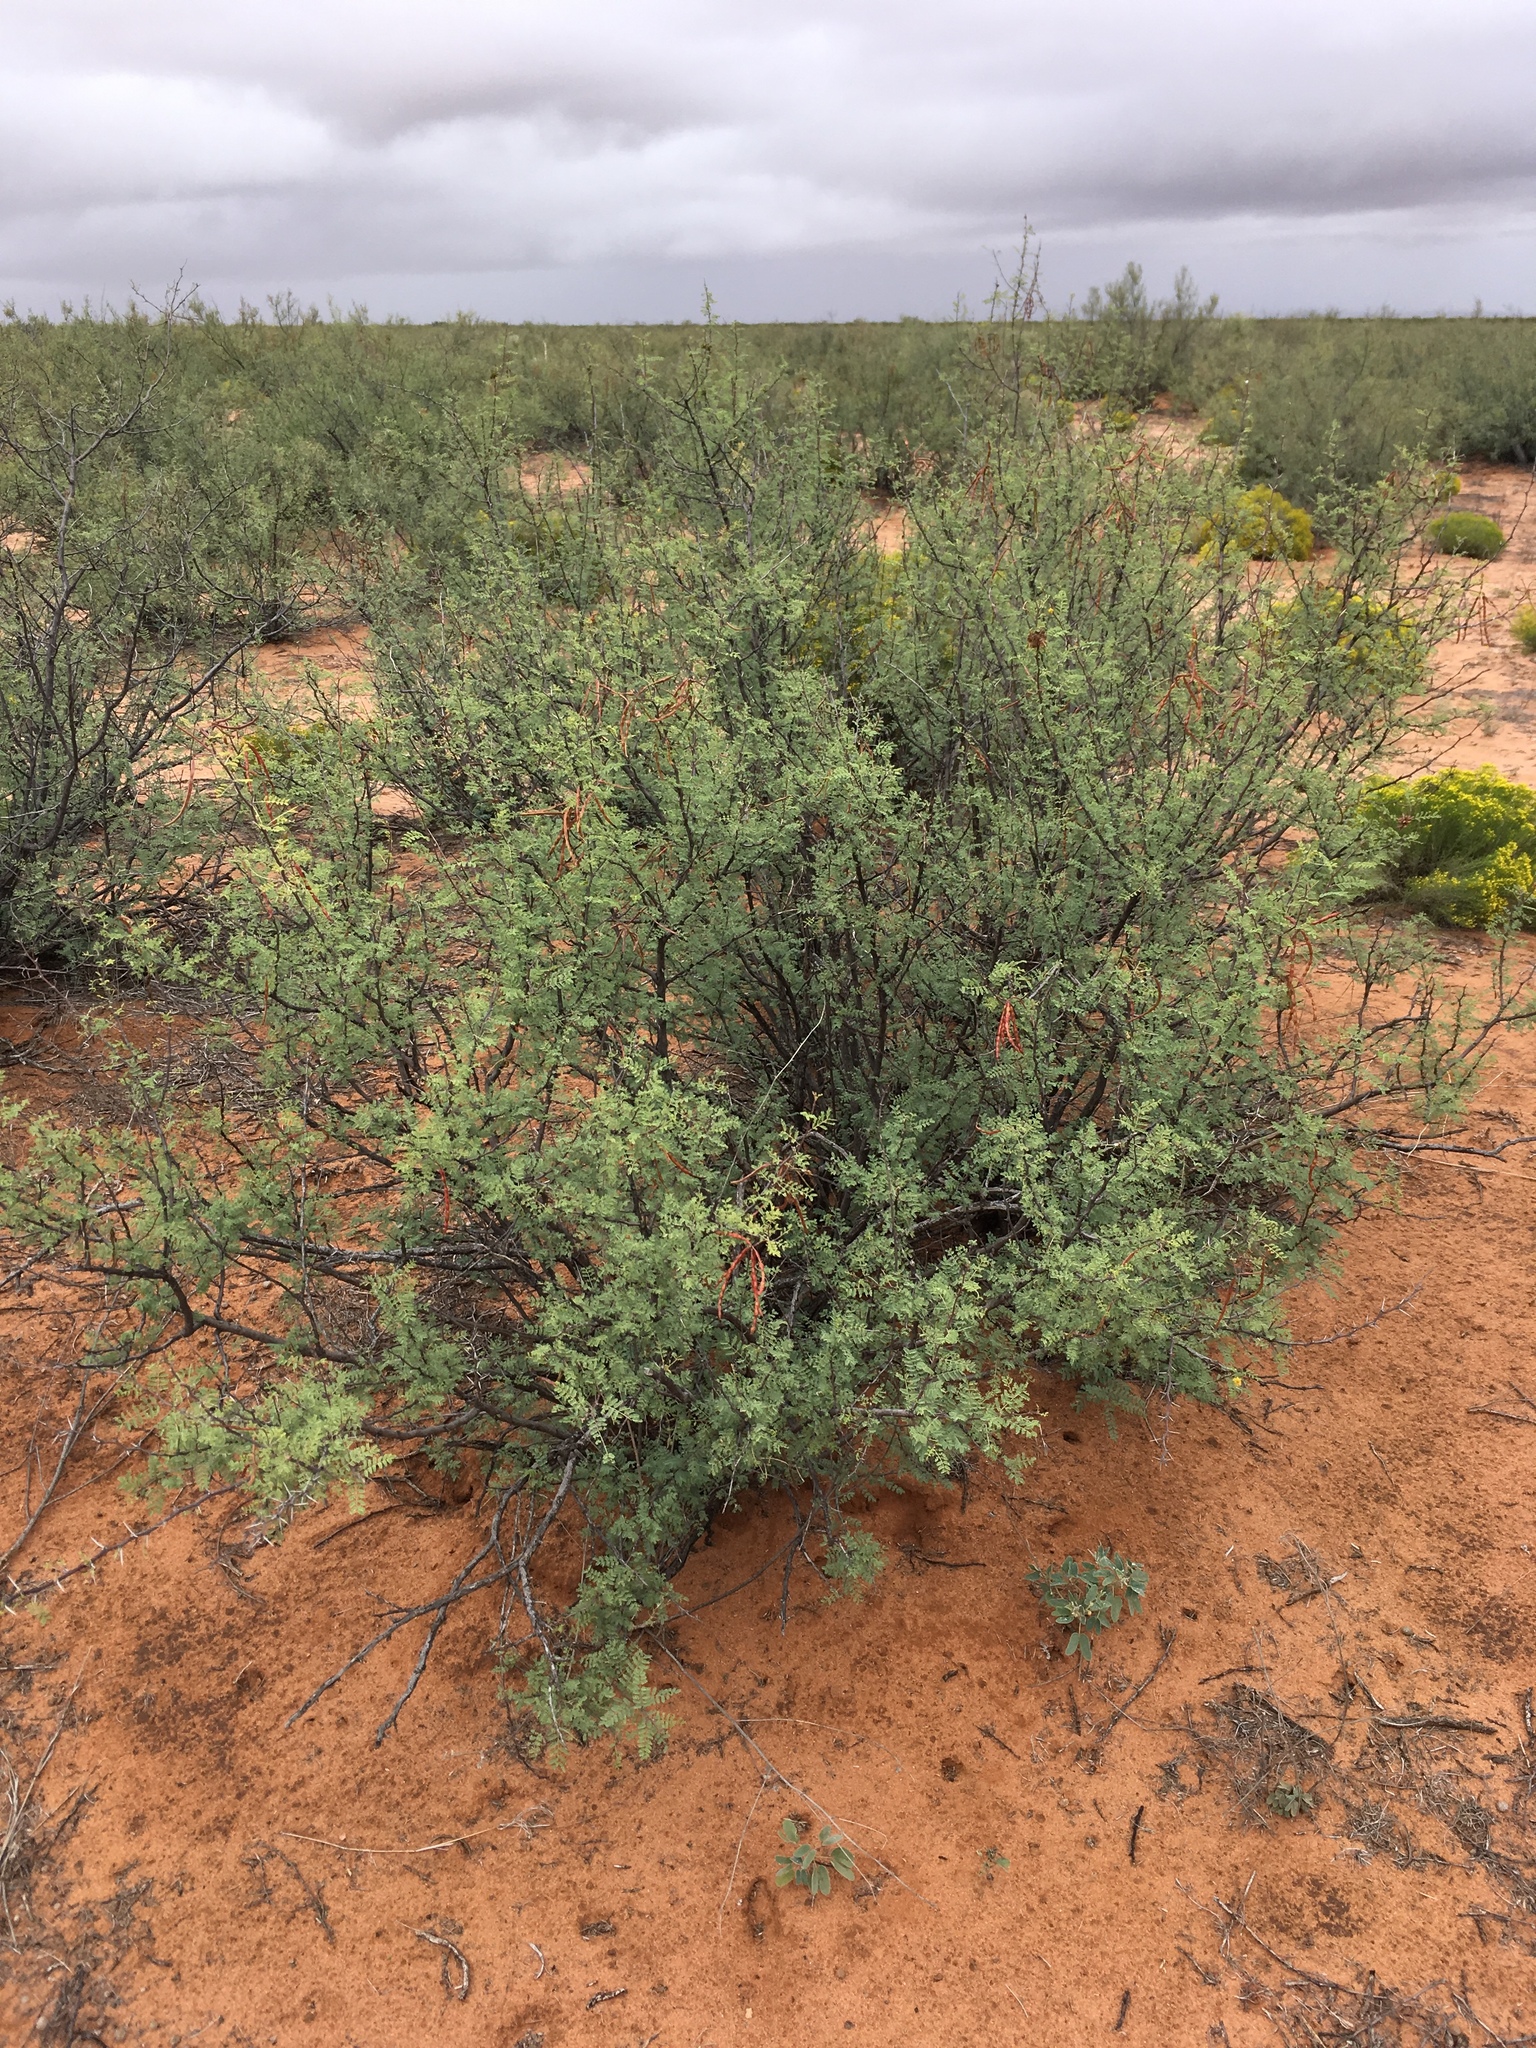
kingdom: Plantae
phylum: Tracheophyta
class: Magnoliopsida
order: Fabales
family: Fabaceae
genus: Vachellia
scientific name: Vachellia constricta
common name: Mescat acacia
